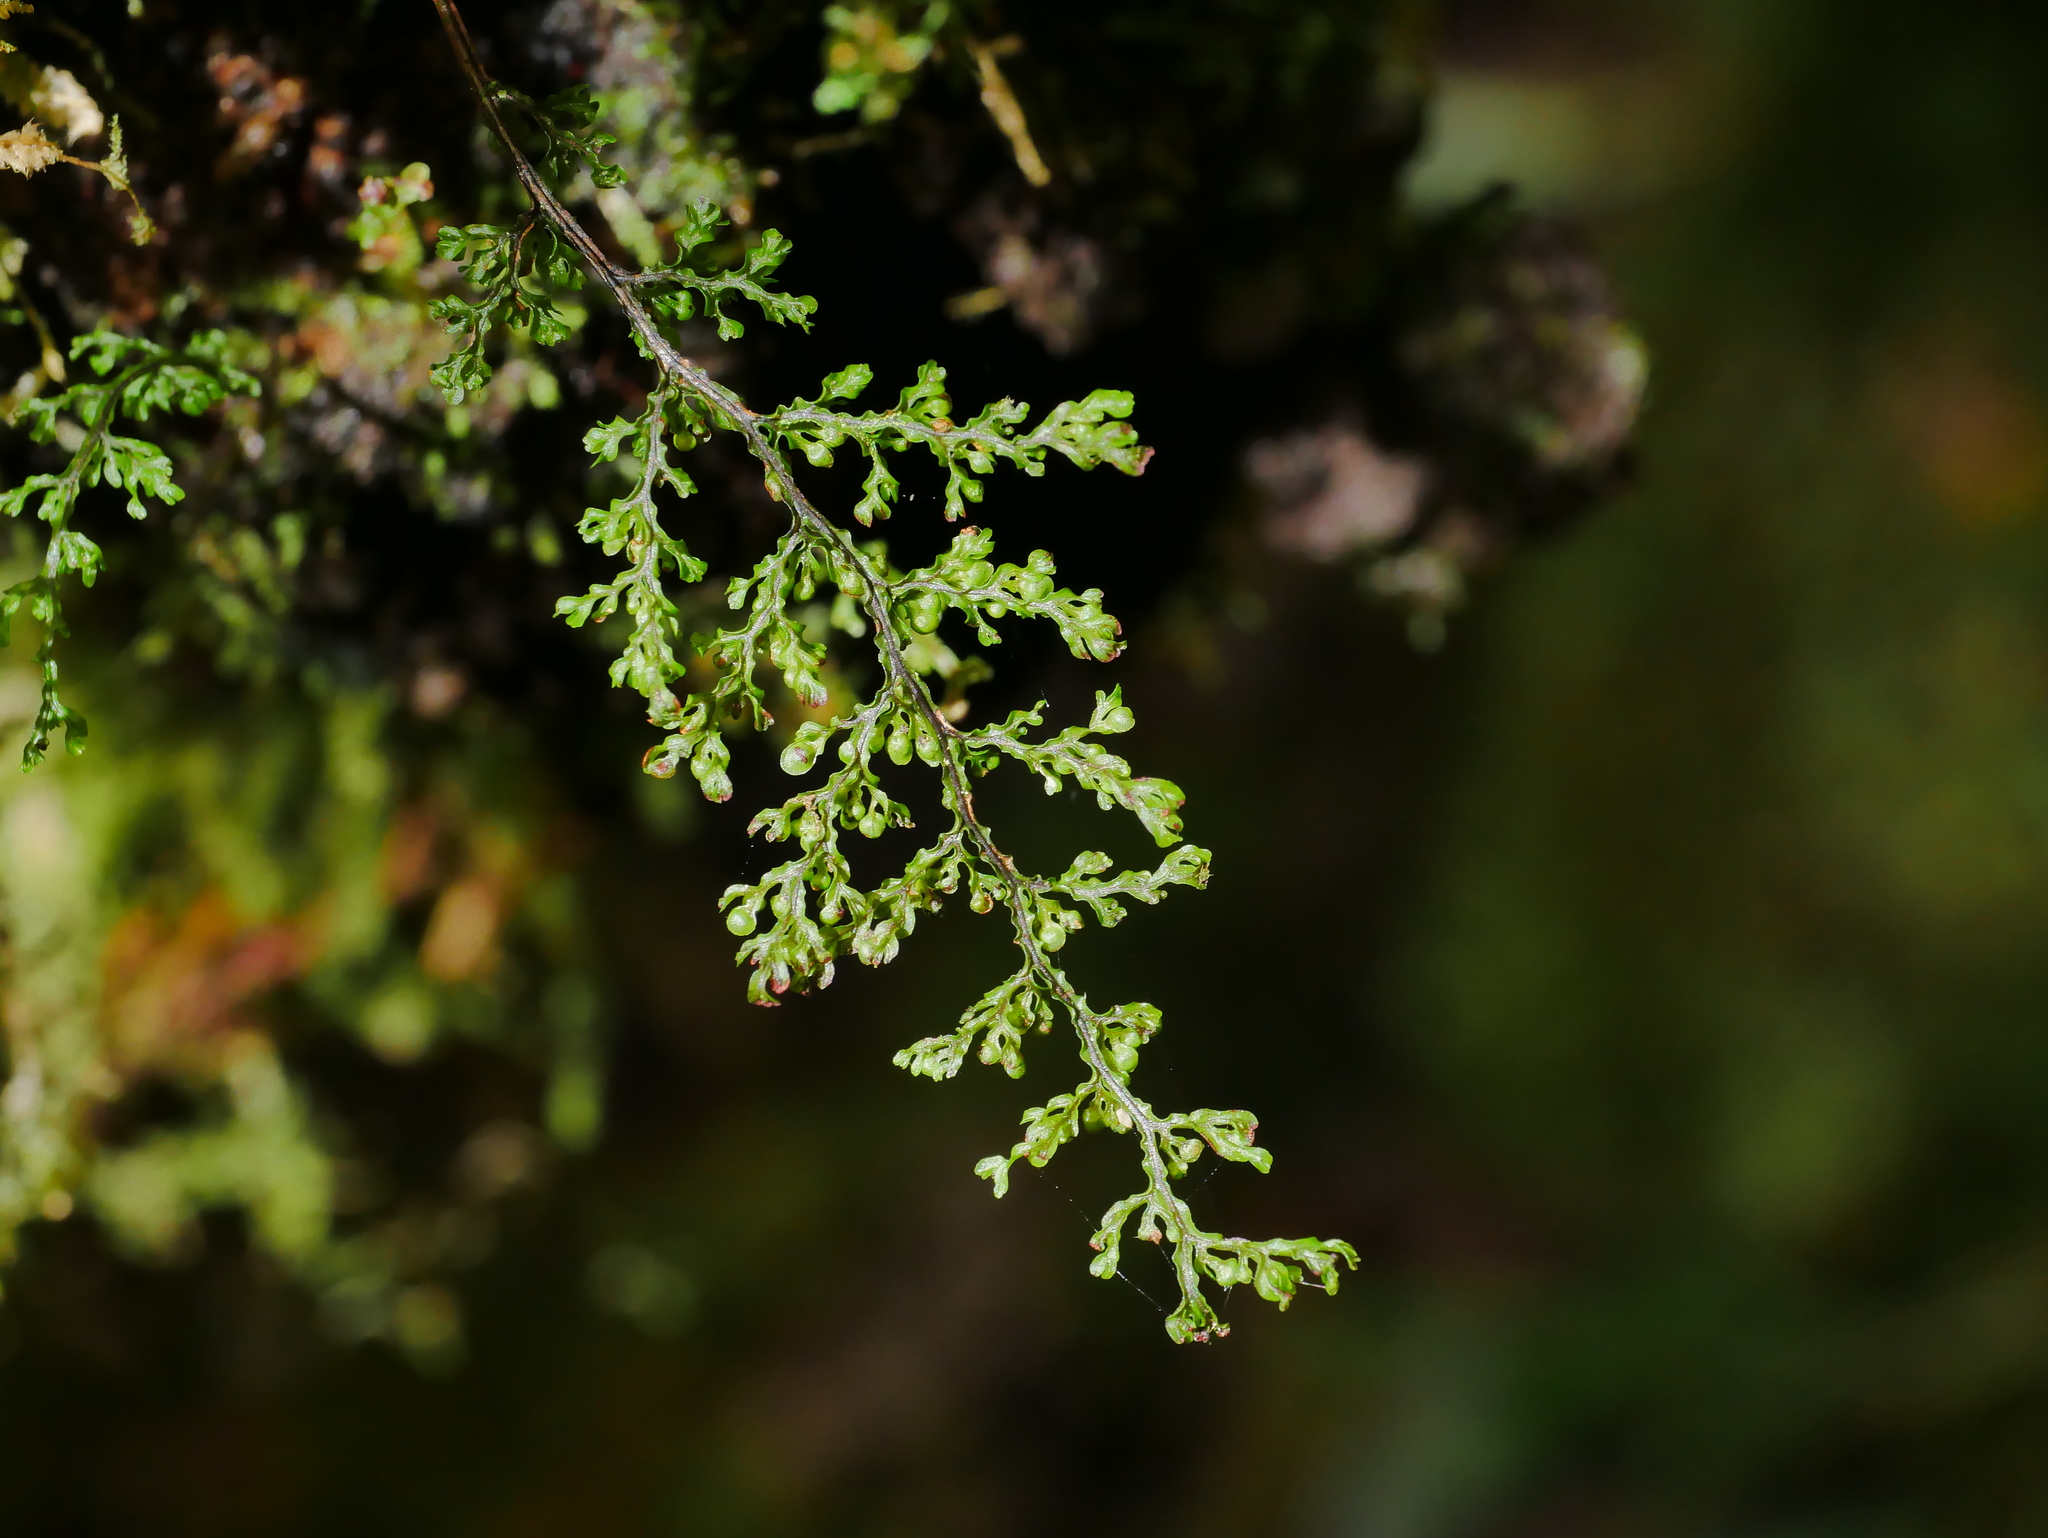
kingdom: Plantae
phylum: Tracheophyta
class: Polypodiopsida
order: Hymenophyllales
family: Hymenophyllaceae
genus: Hymenophyllum
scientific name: Hymenophyllum exquisitum
